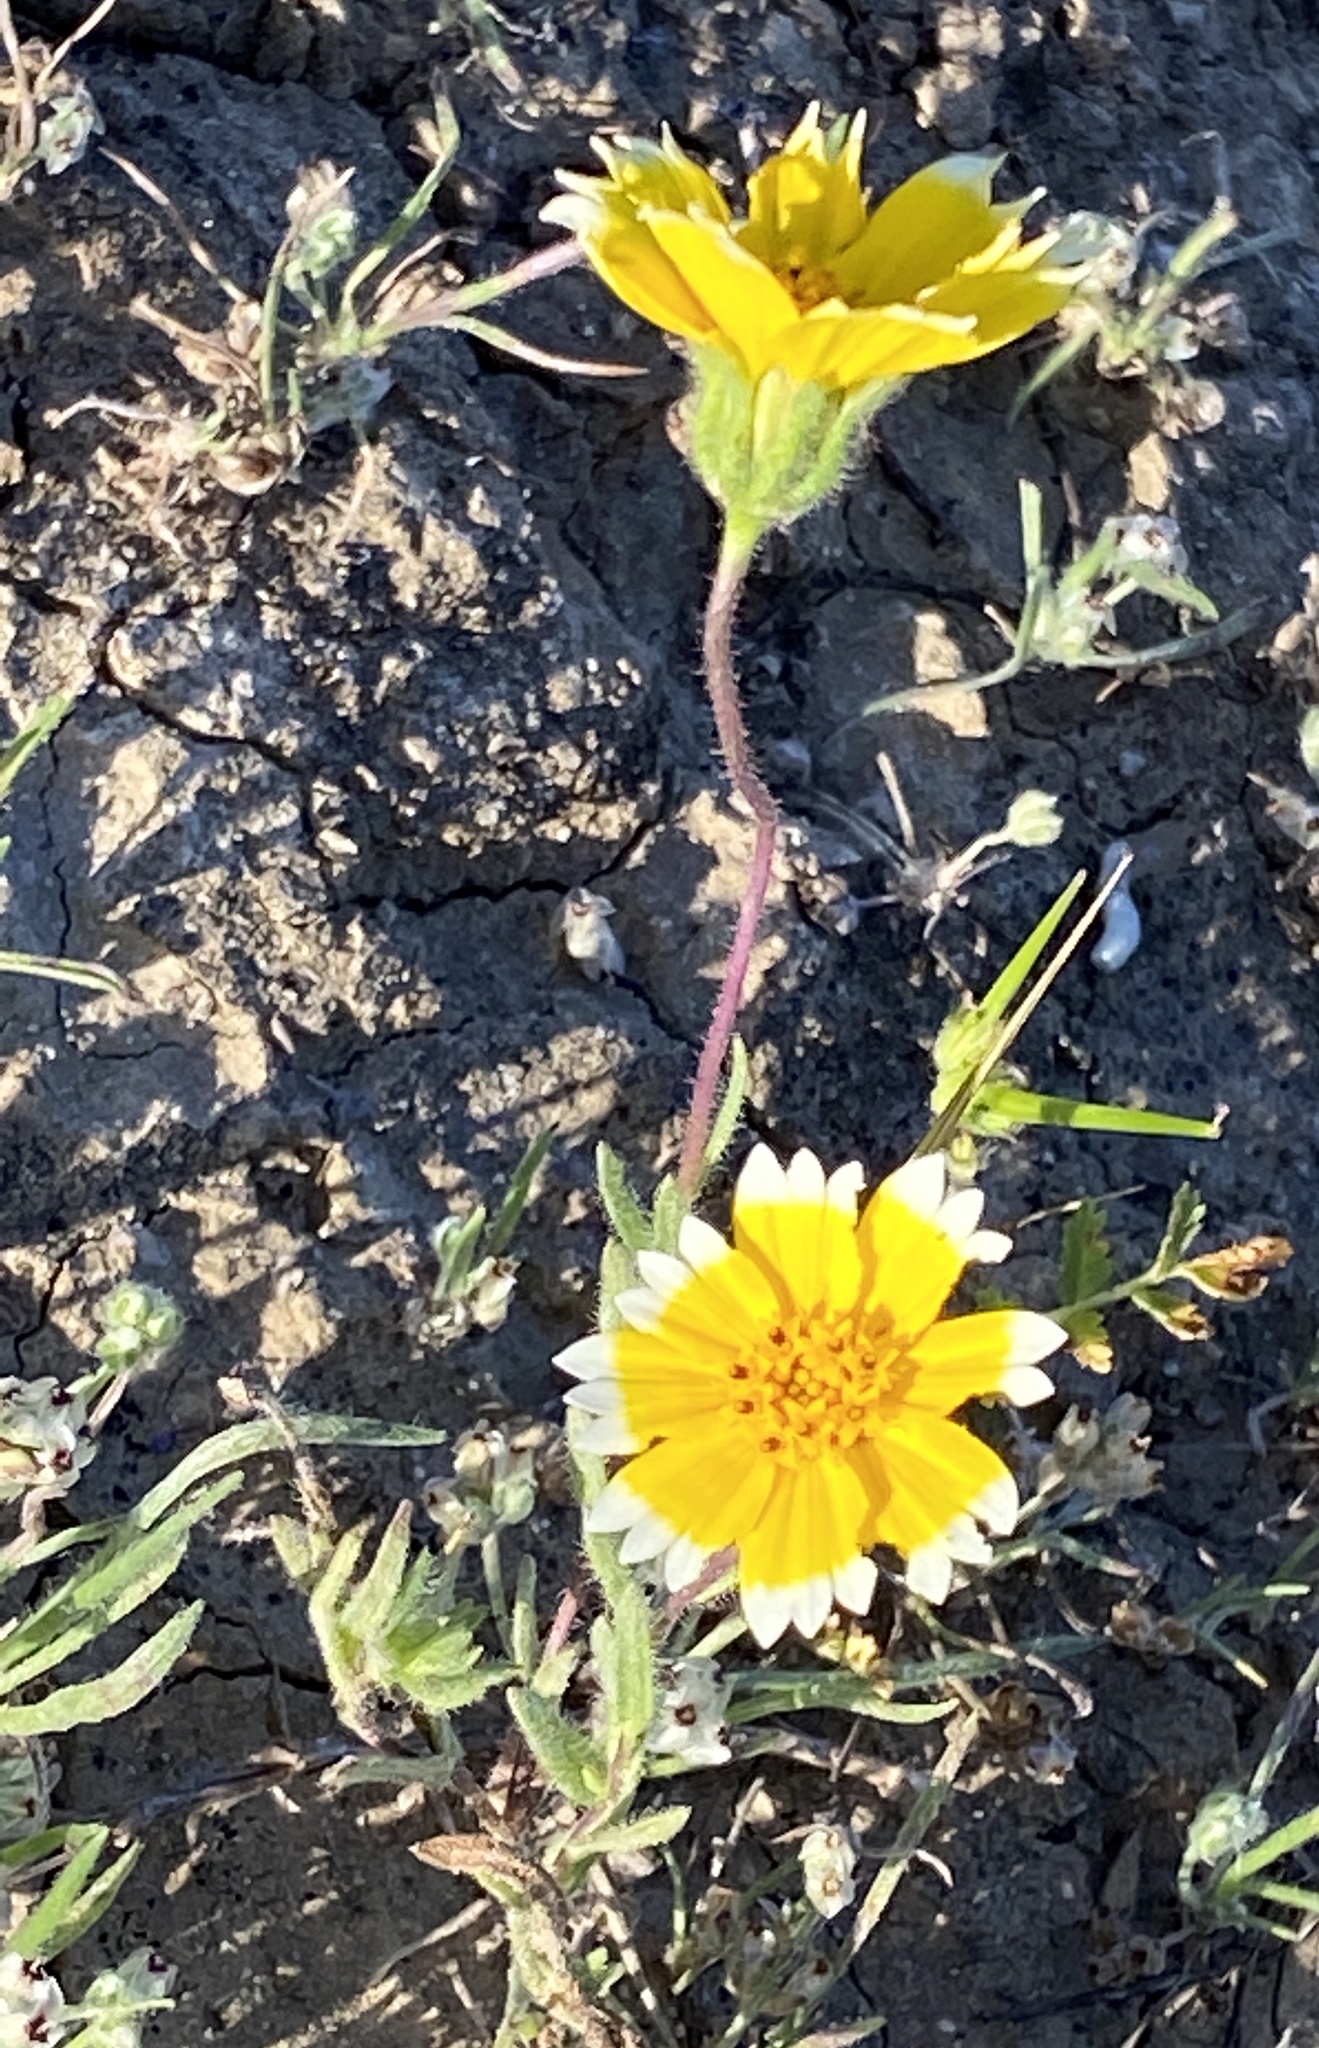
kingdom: Plantae
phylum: Tracheophyta
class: Magnoliopsida
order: Asterales
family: Asteraceae
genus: Layia
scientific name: Layia platyglossa
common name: Tidy-tips
